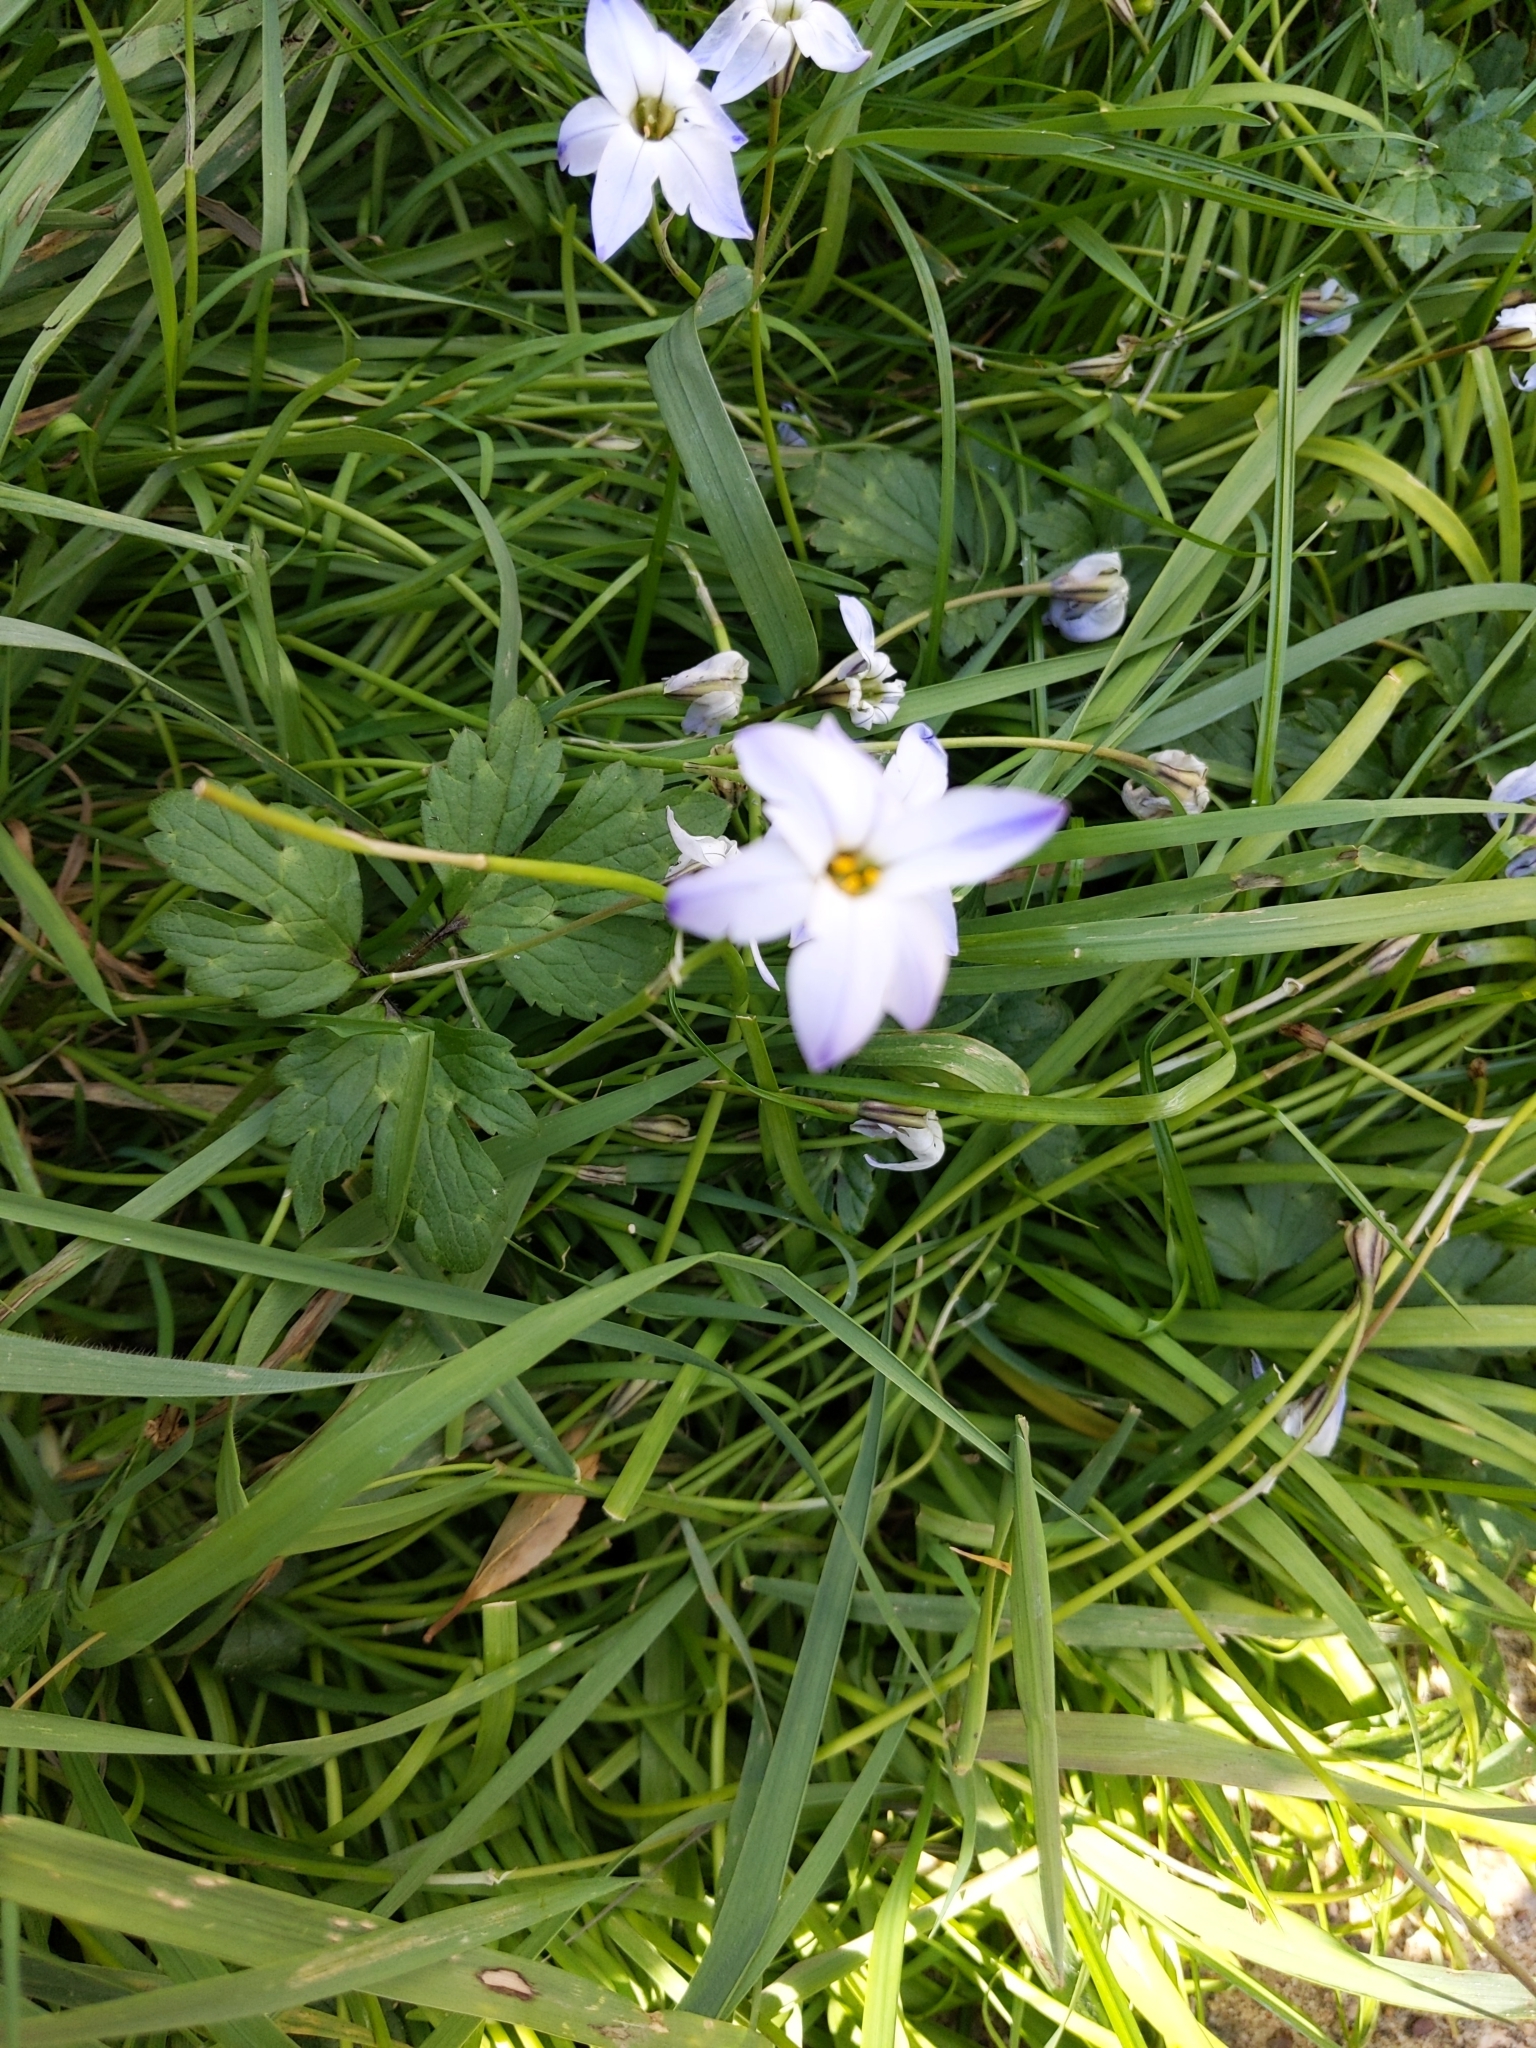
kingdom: Plantae
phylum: Tracheophyta
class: Liliopsida
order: Asparagales
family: Amaryllidaceae
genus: Ipheion
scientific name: Ipheion uniflorum
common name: Spring starflower
